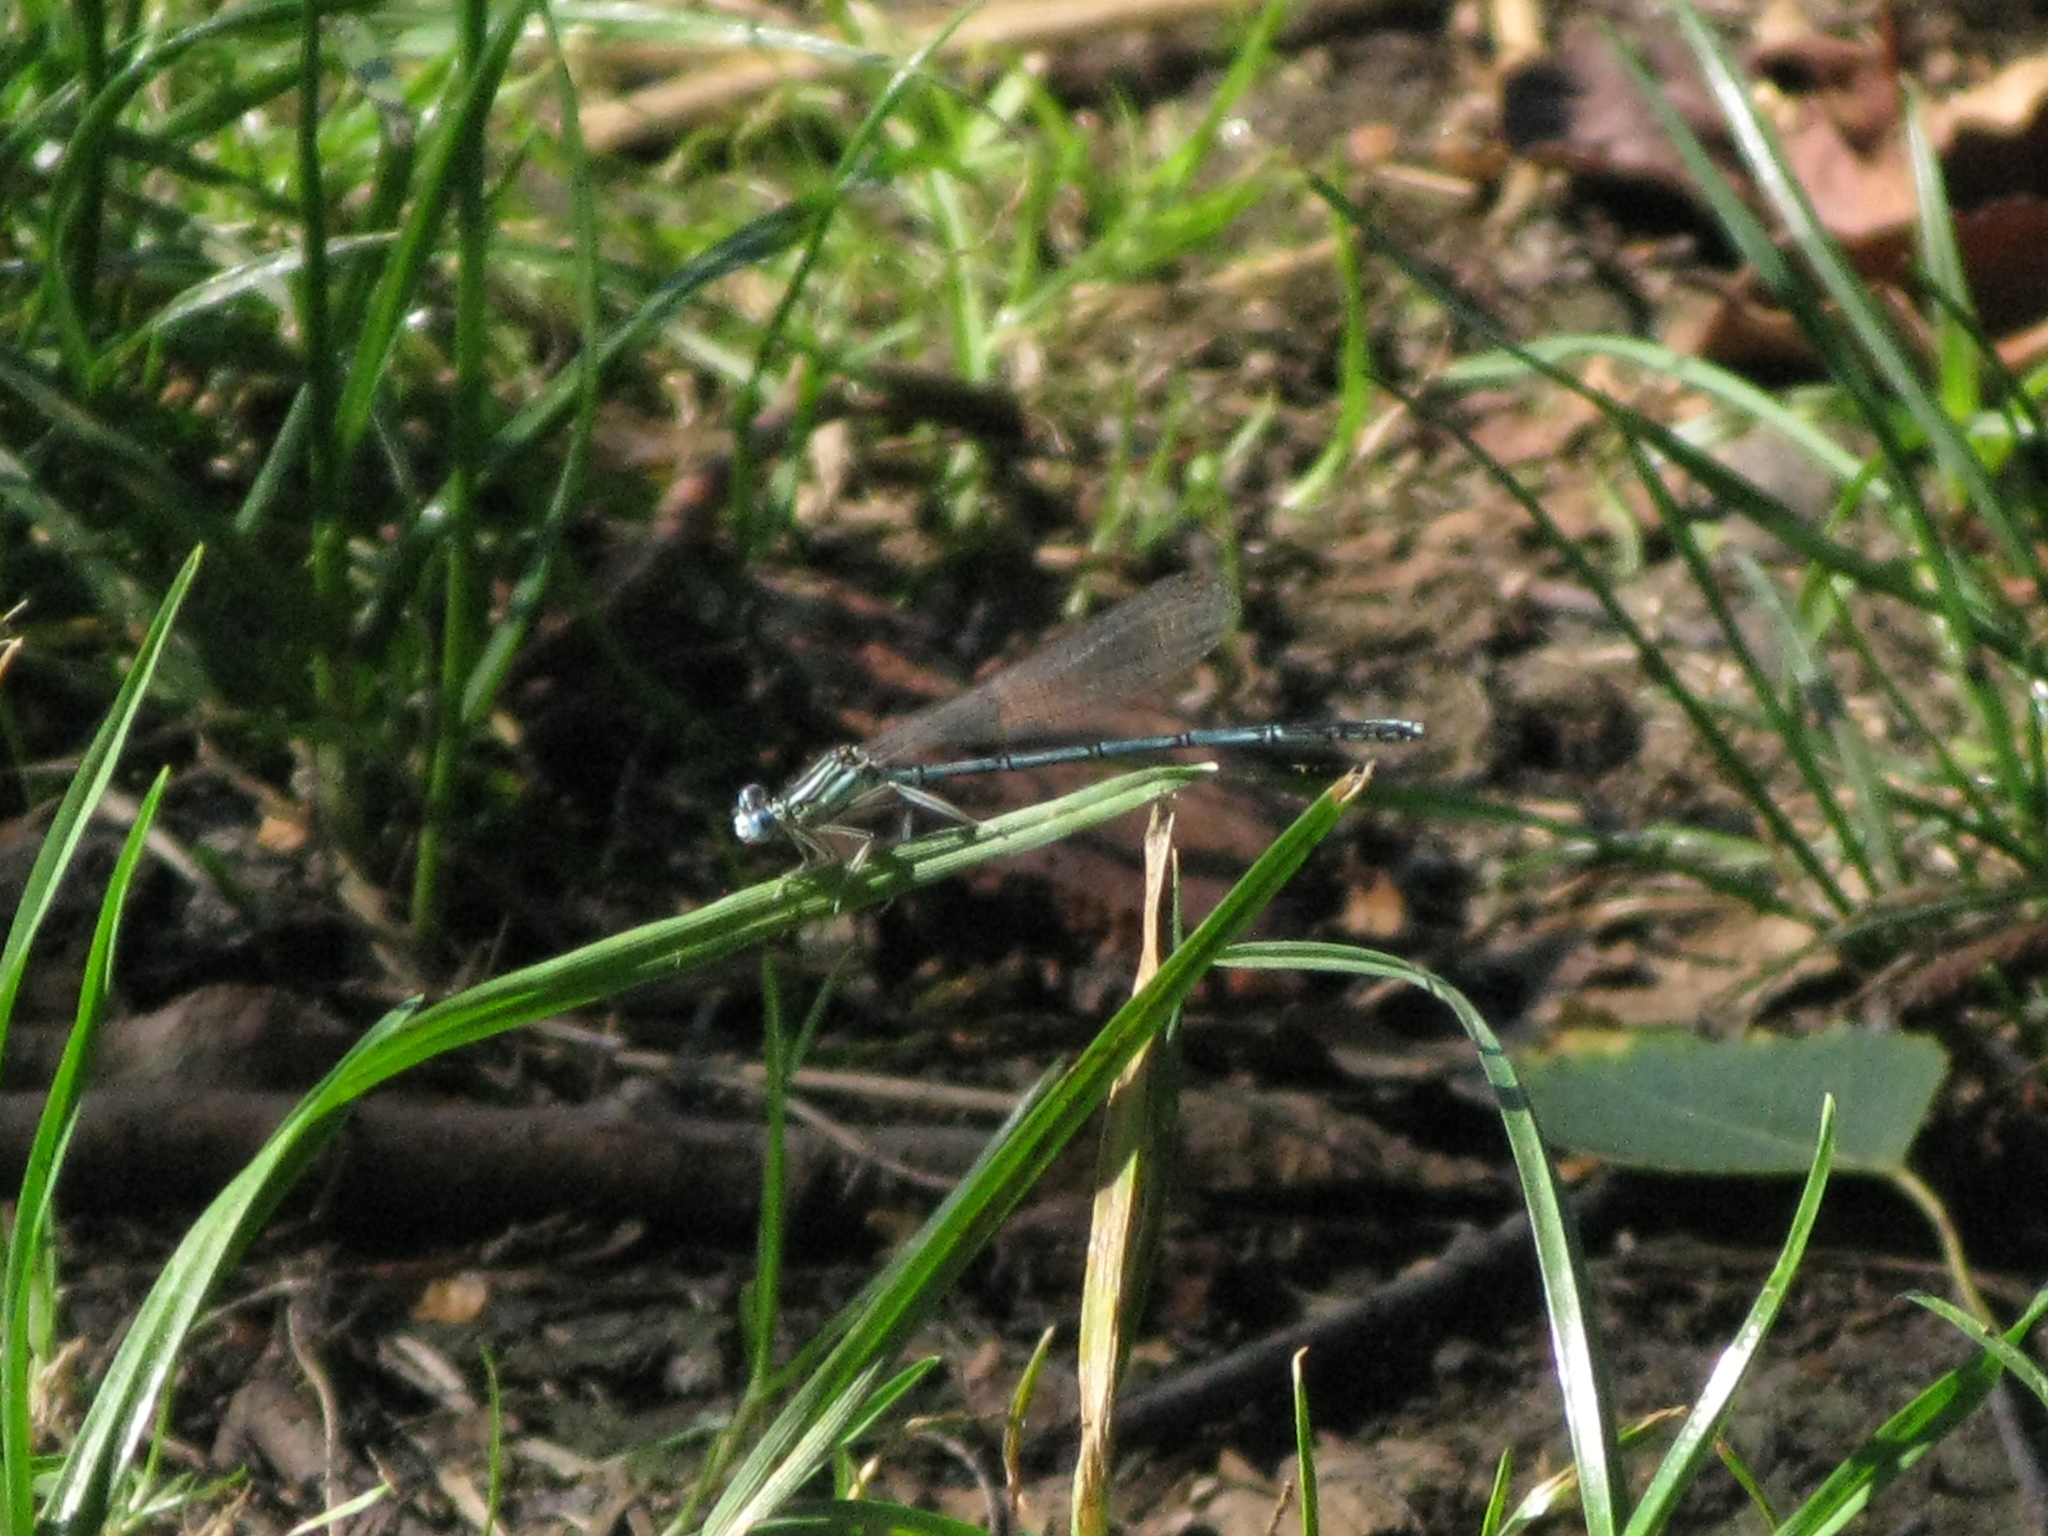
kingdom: Animalia
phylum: Arthropoda
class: Insecta
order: Odonata
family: Platycnemididae
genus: Platycnemis
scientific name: Platycnemis pennipes
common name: White-legged damselfly
